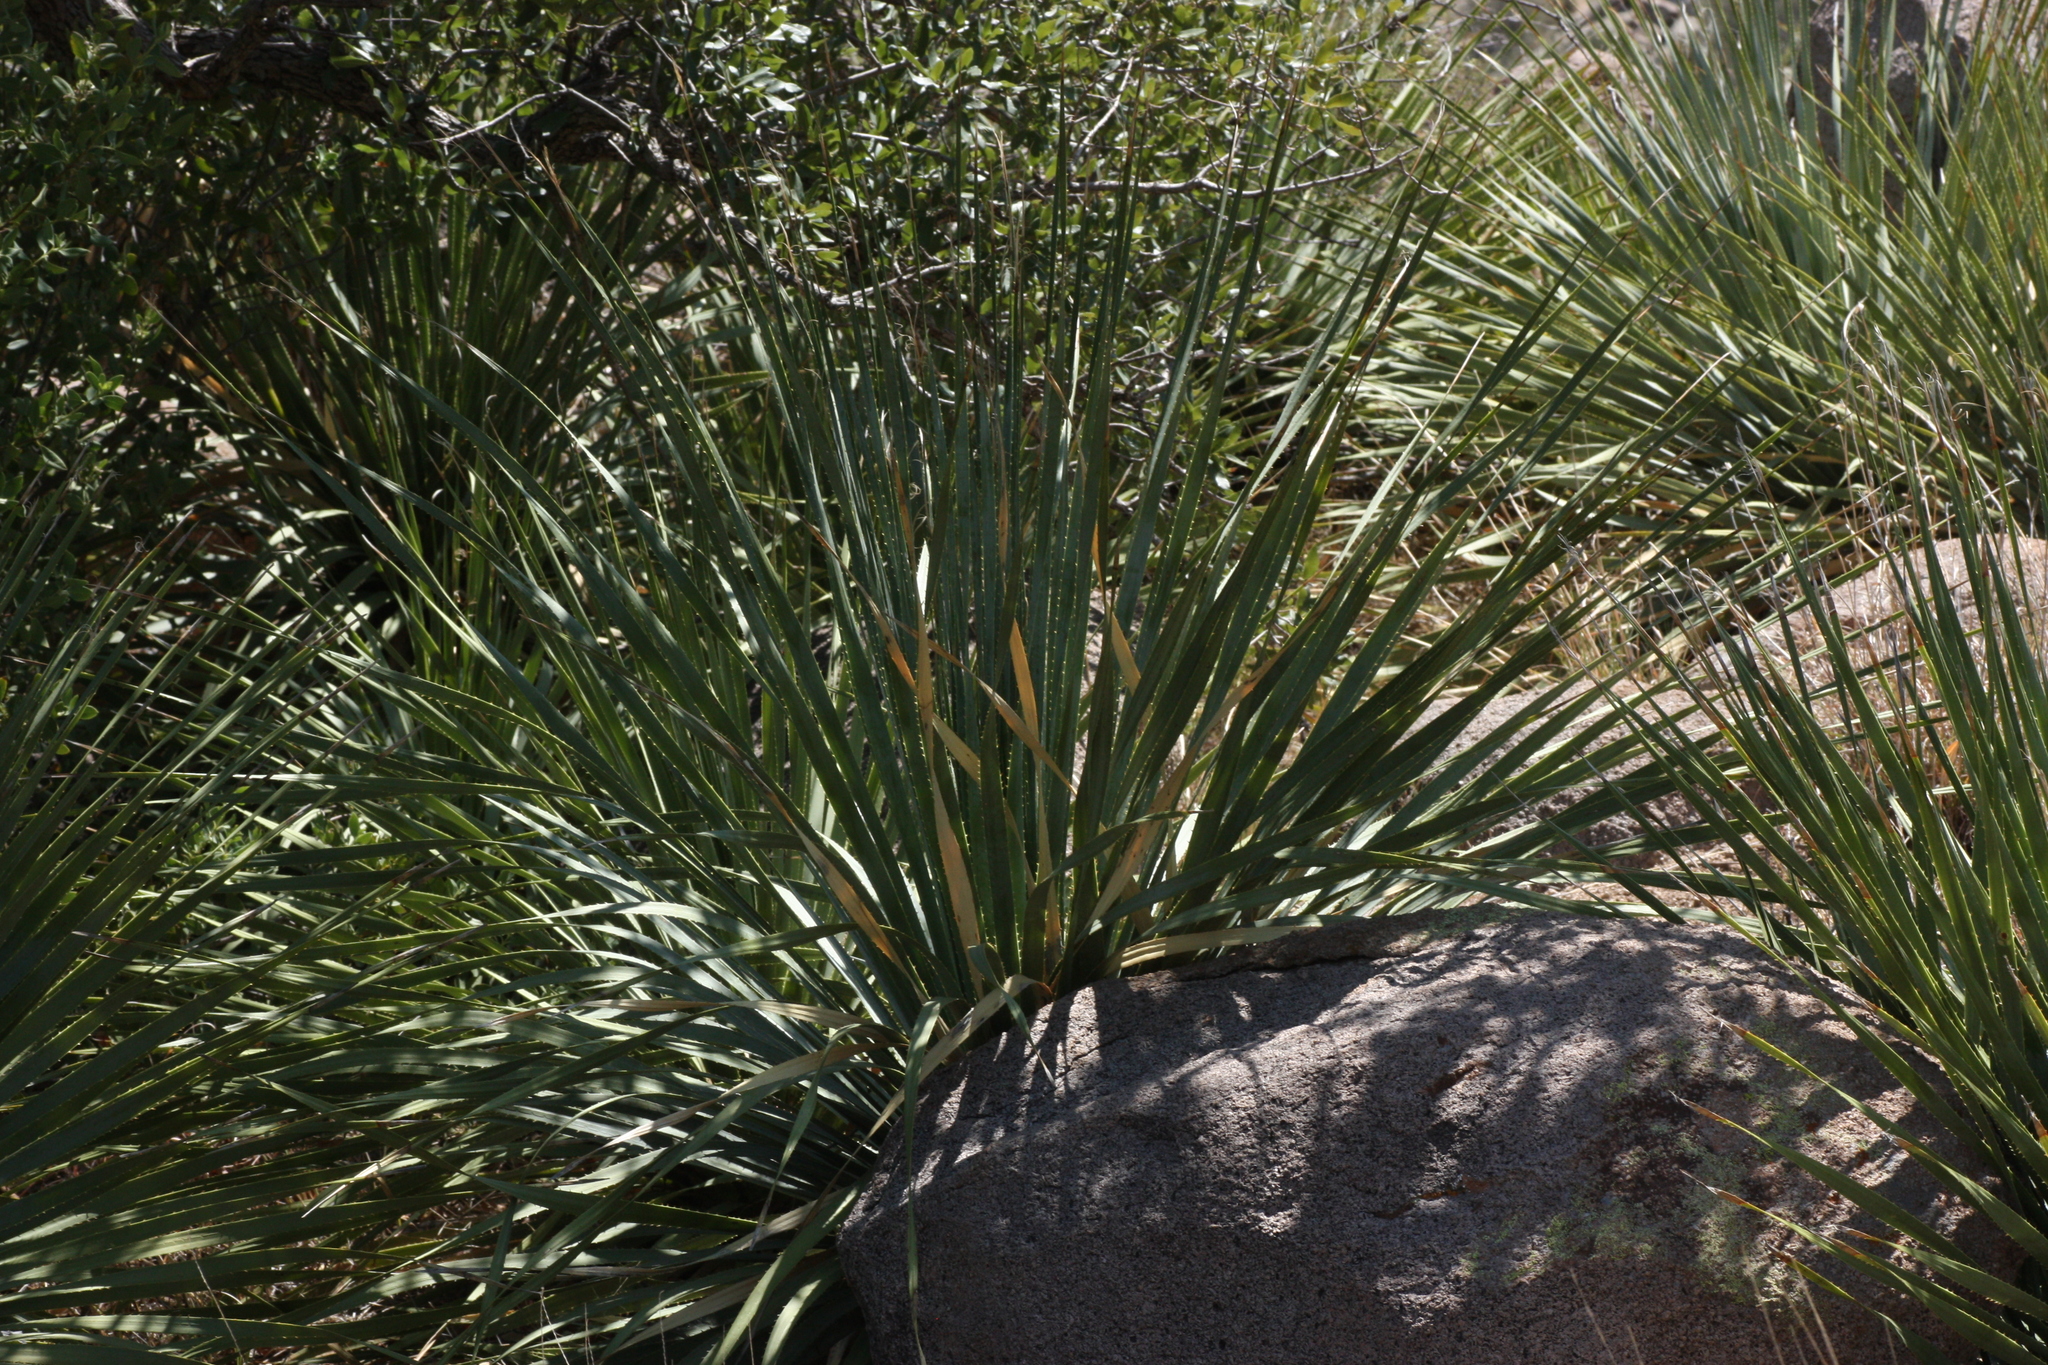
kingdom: Plantae
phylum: Tracheophyta
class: Liliopsida
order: Asparagales
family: Asparagaceae
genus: Dasylirion
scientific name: Dasylirion wheeleri
